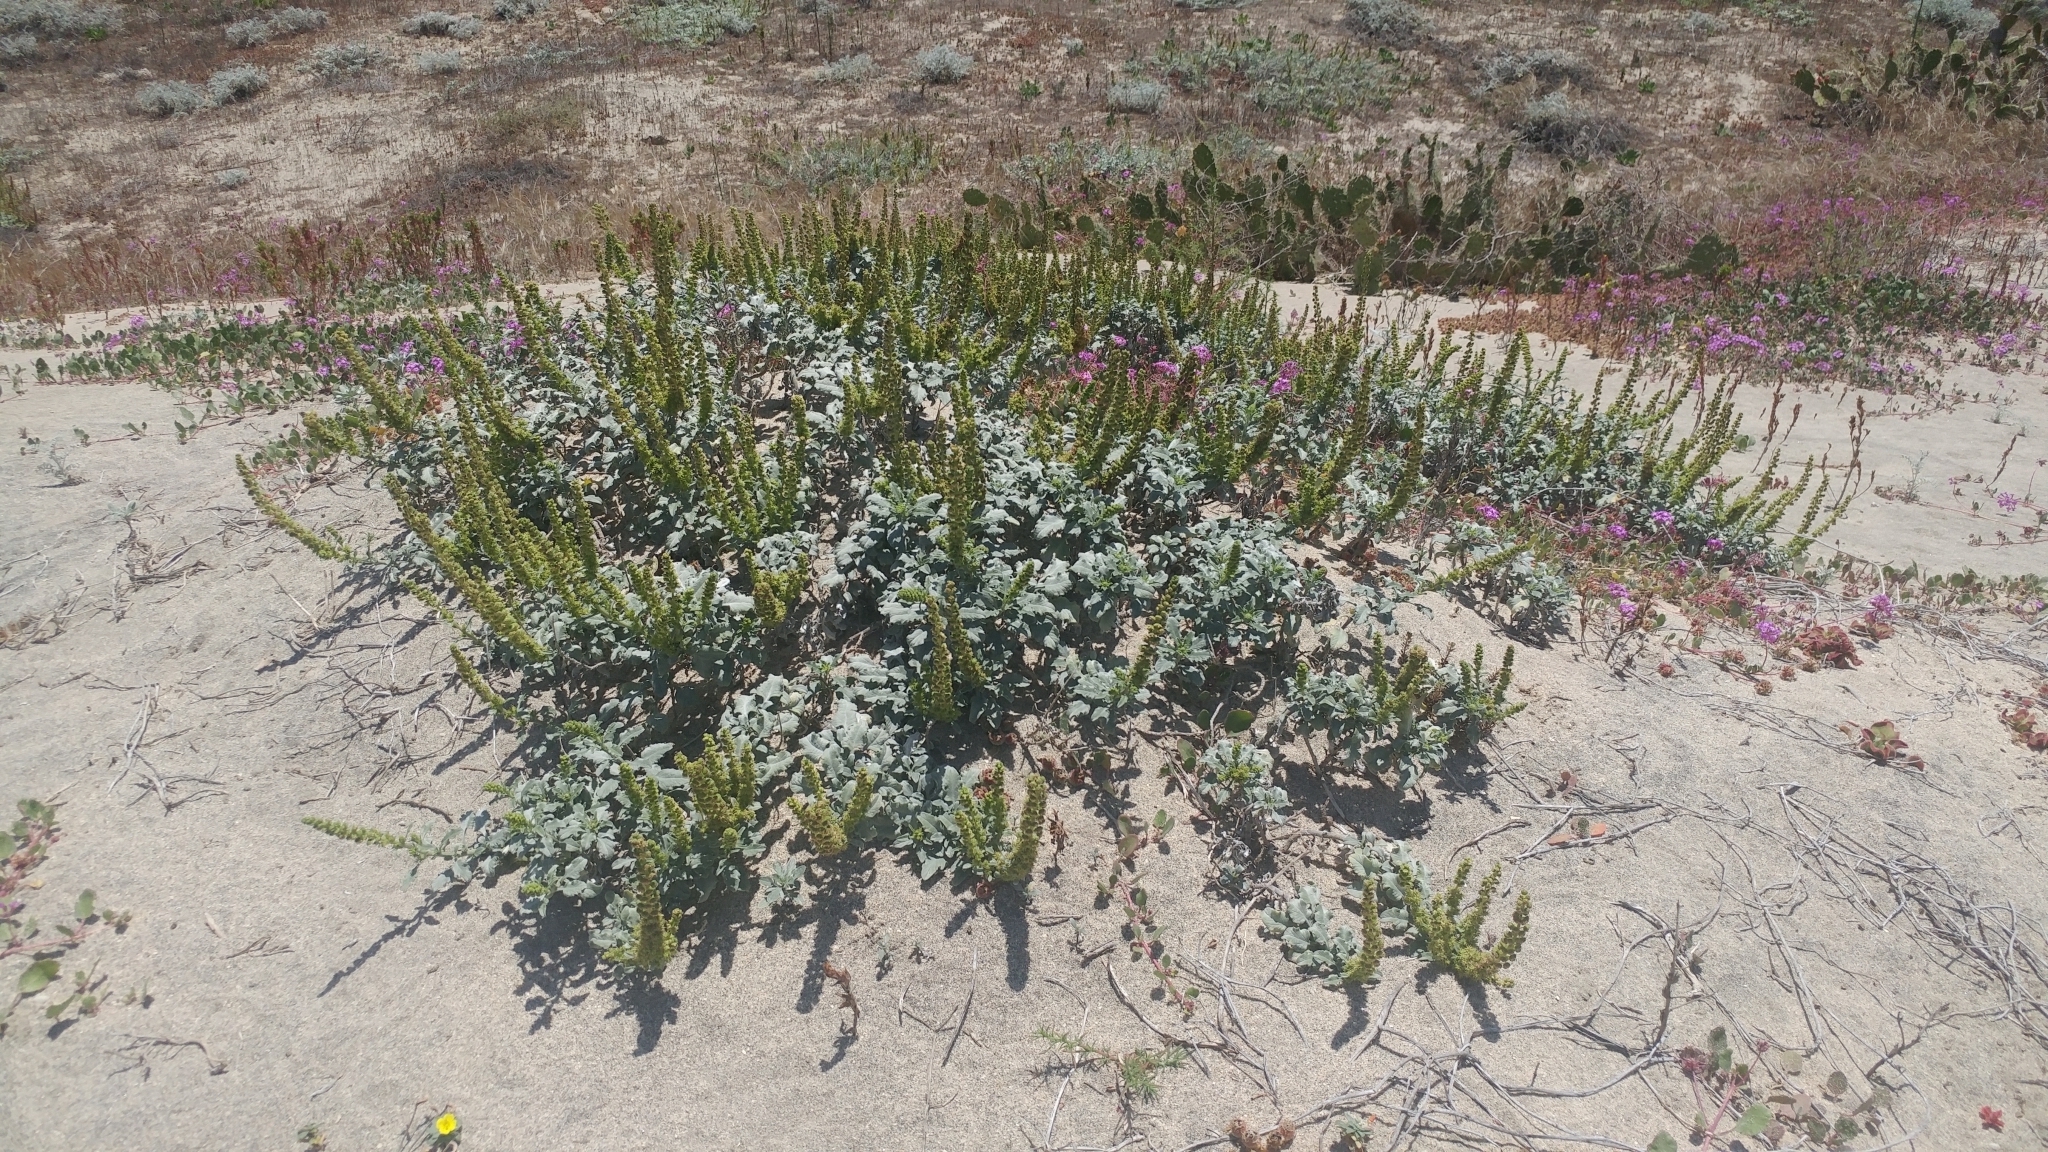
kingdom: Plantae
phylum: Tracheophyta
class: Magnoliopsida
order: Asterales
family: Asteraceae
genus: Ambrosia
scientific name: Ambrosia chamissonis
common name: Beachbur
